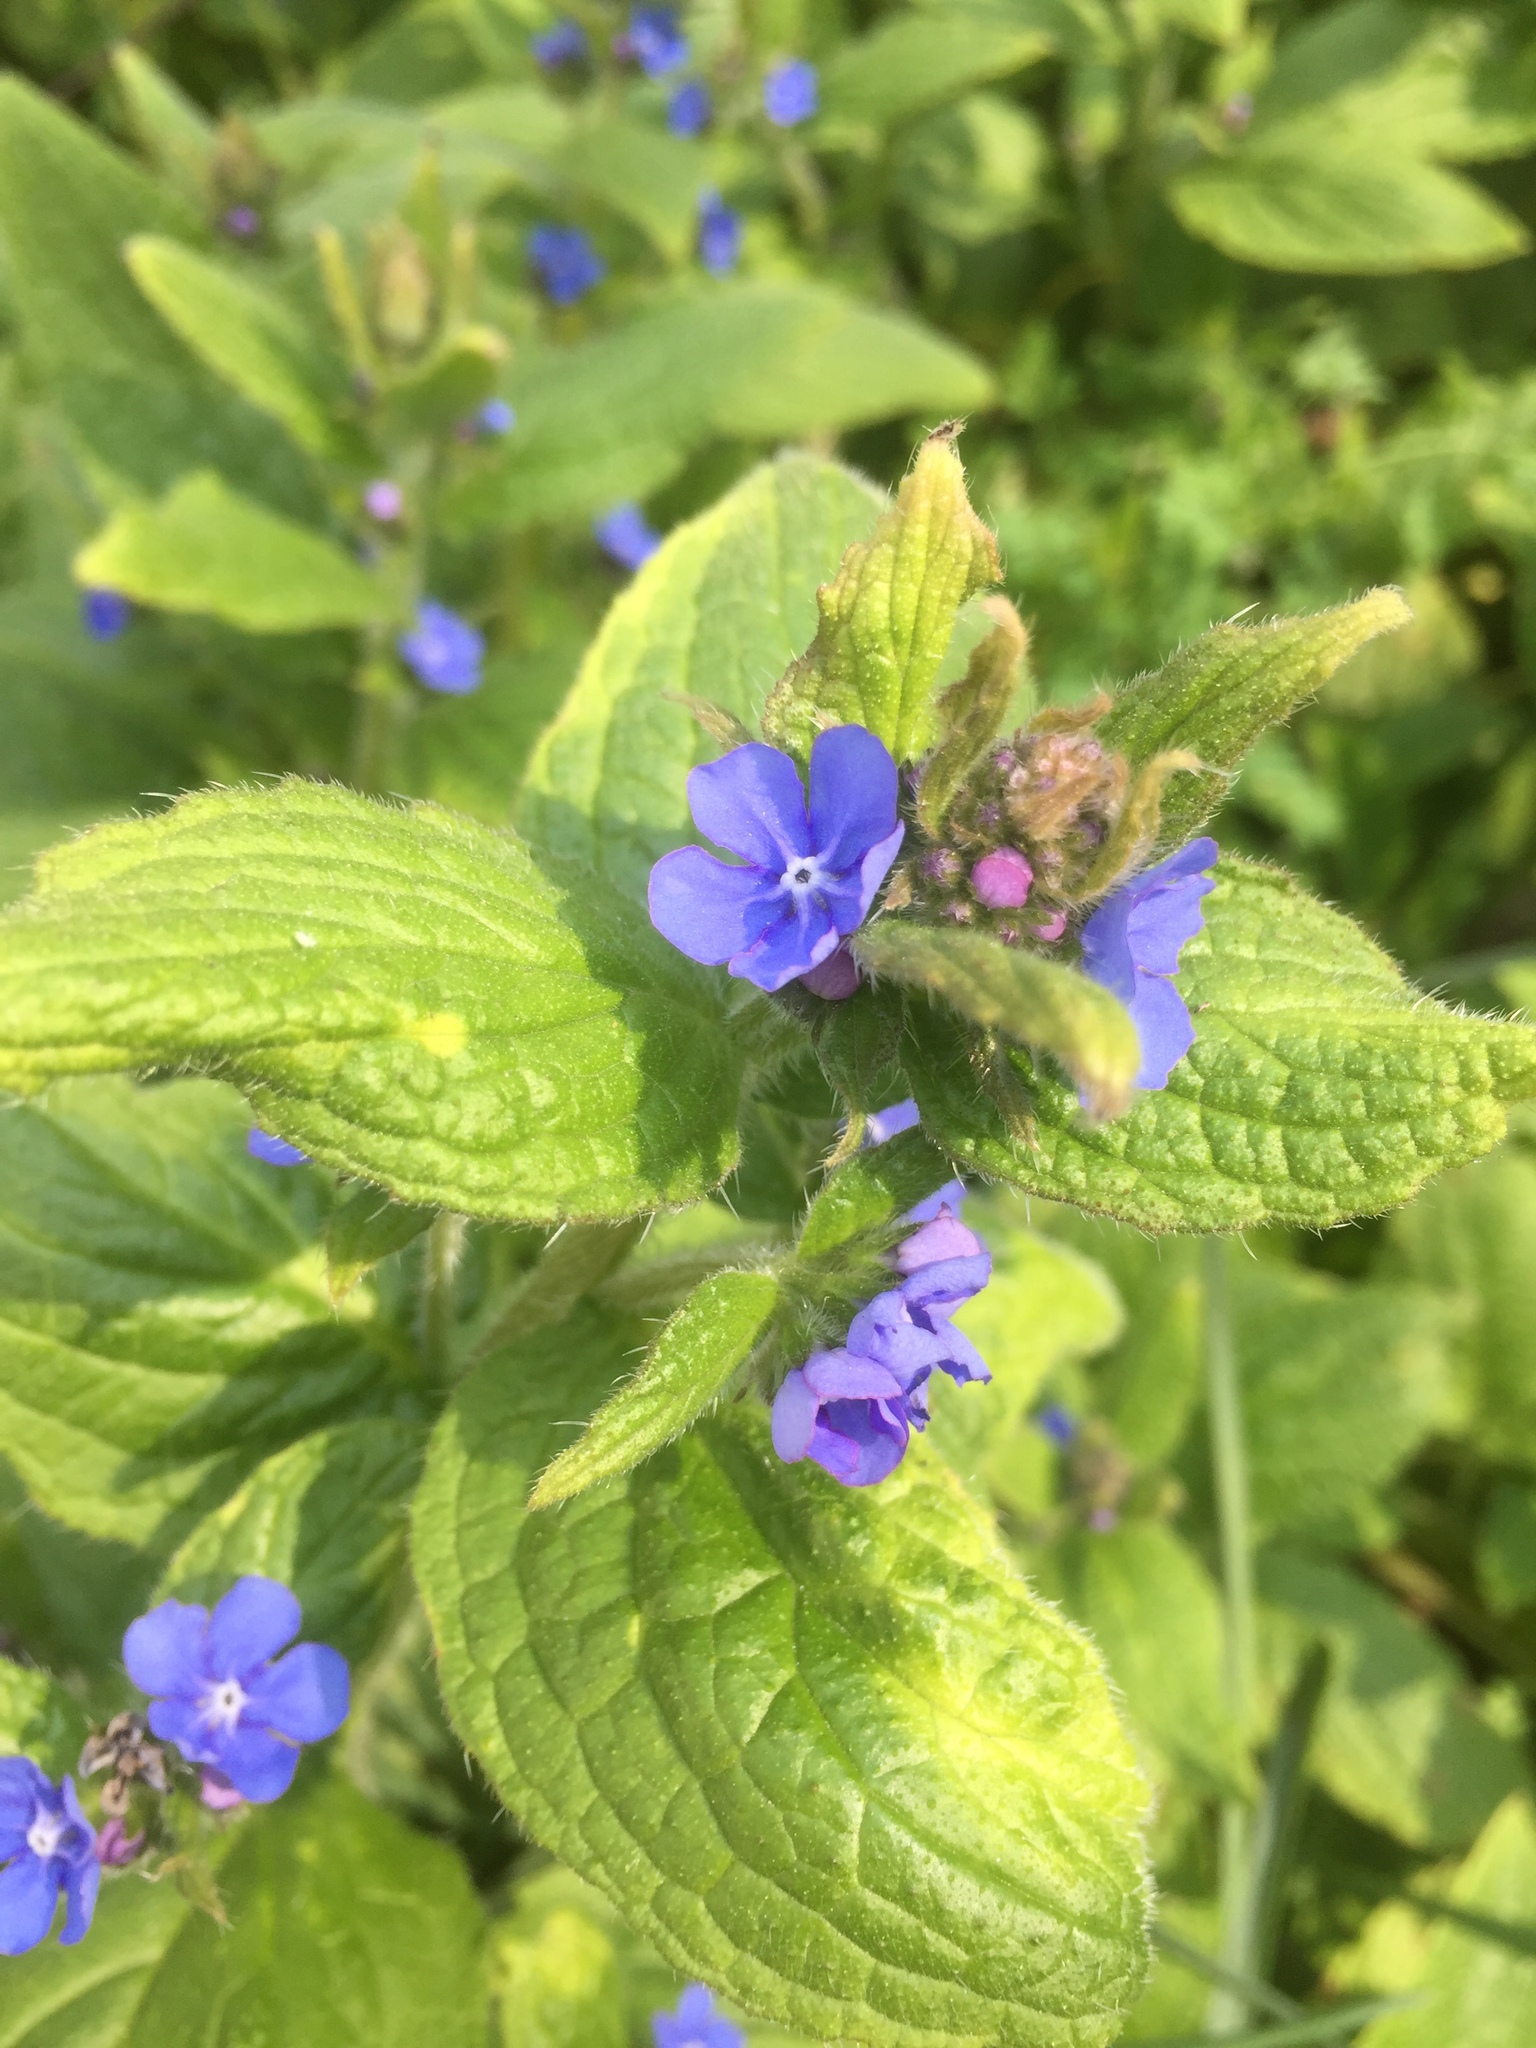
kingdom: Plantae
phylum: Tracheophyta
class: Magnoliopsida
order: Boraginales
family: Boraginaceae
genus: Pentaglottis
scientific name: Pentaglottis sempervirens
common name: Green alkanet
